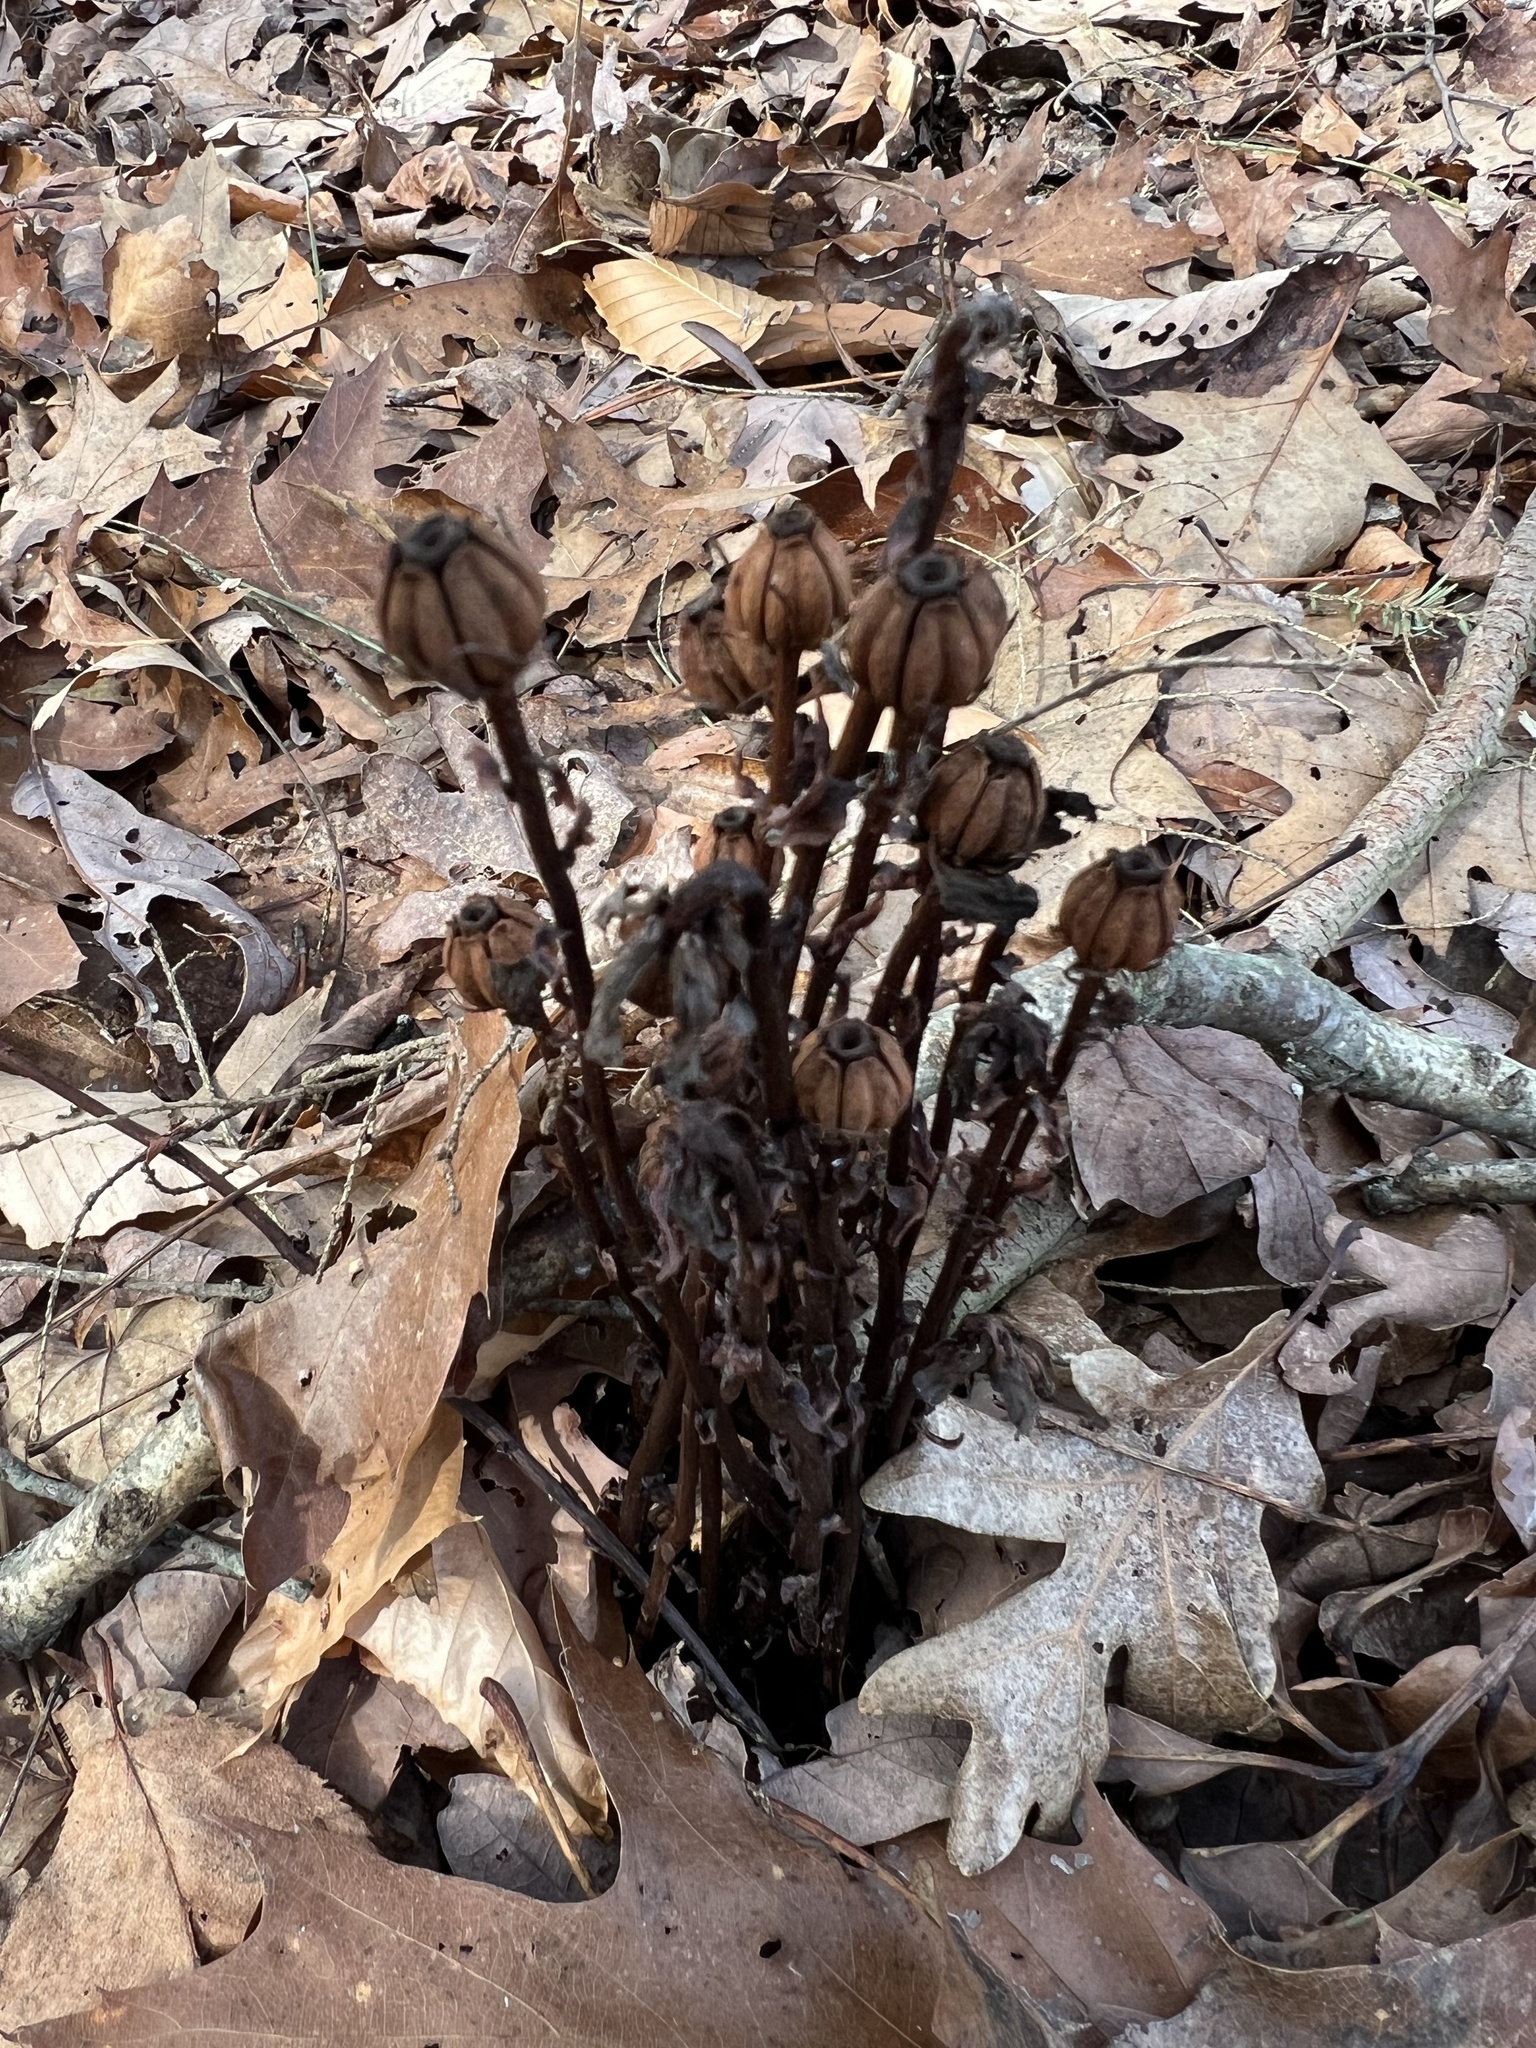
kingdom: Plantae
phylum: Tracheophyta
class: Magnoliopsida
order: Ericales
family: Ericaceae
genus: Monotropa
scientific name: Monotropa uniflora
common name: Convulsion root
